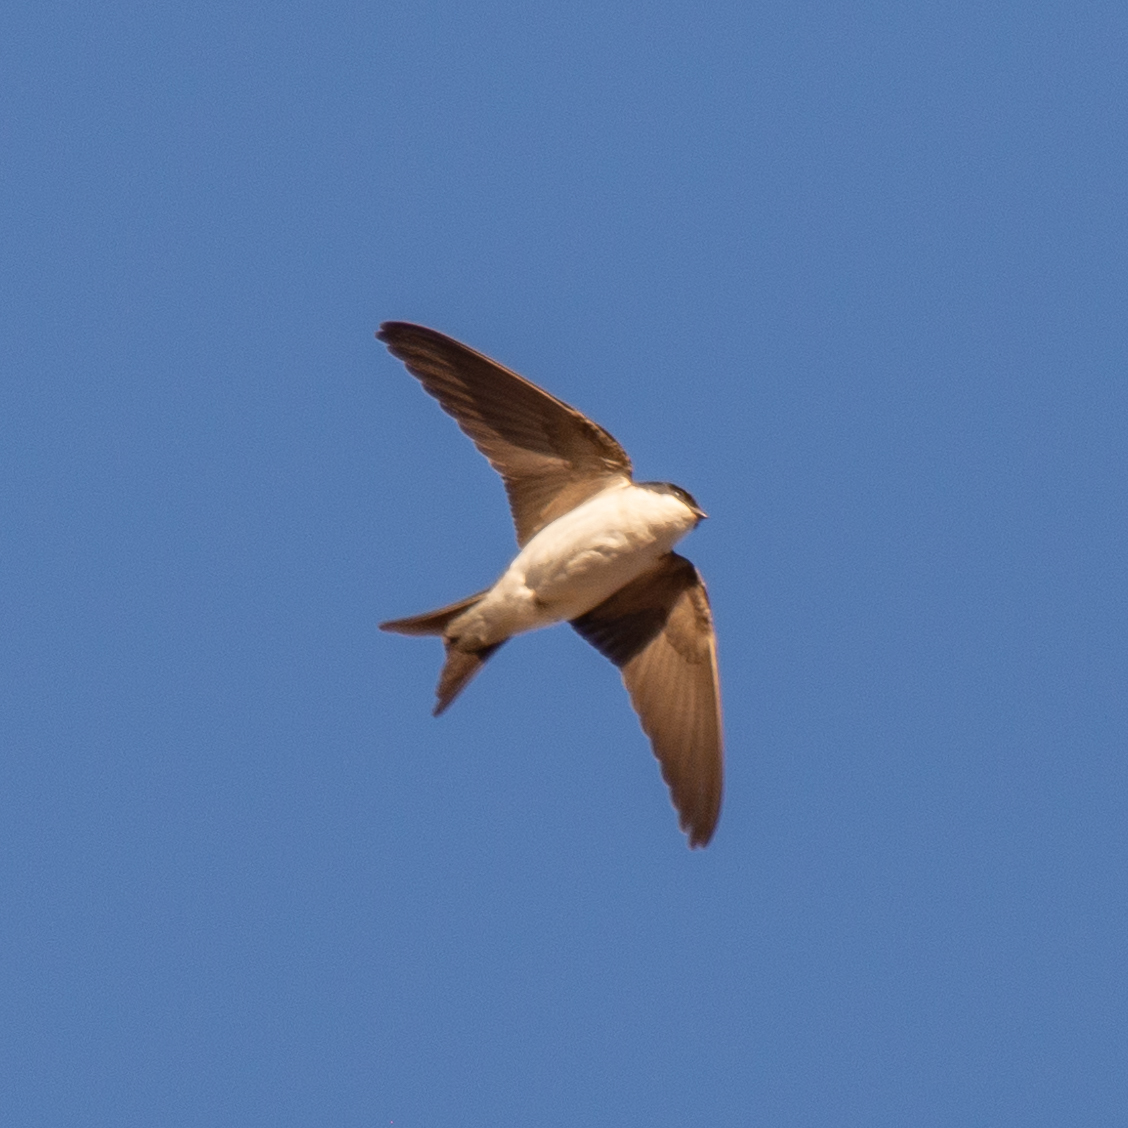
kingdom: Animalia
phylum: Chordata
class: Aves
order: Passeriformes
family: Hirundinidae
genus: Delichon
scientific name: Delichon urbicum
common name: Common house martin
